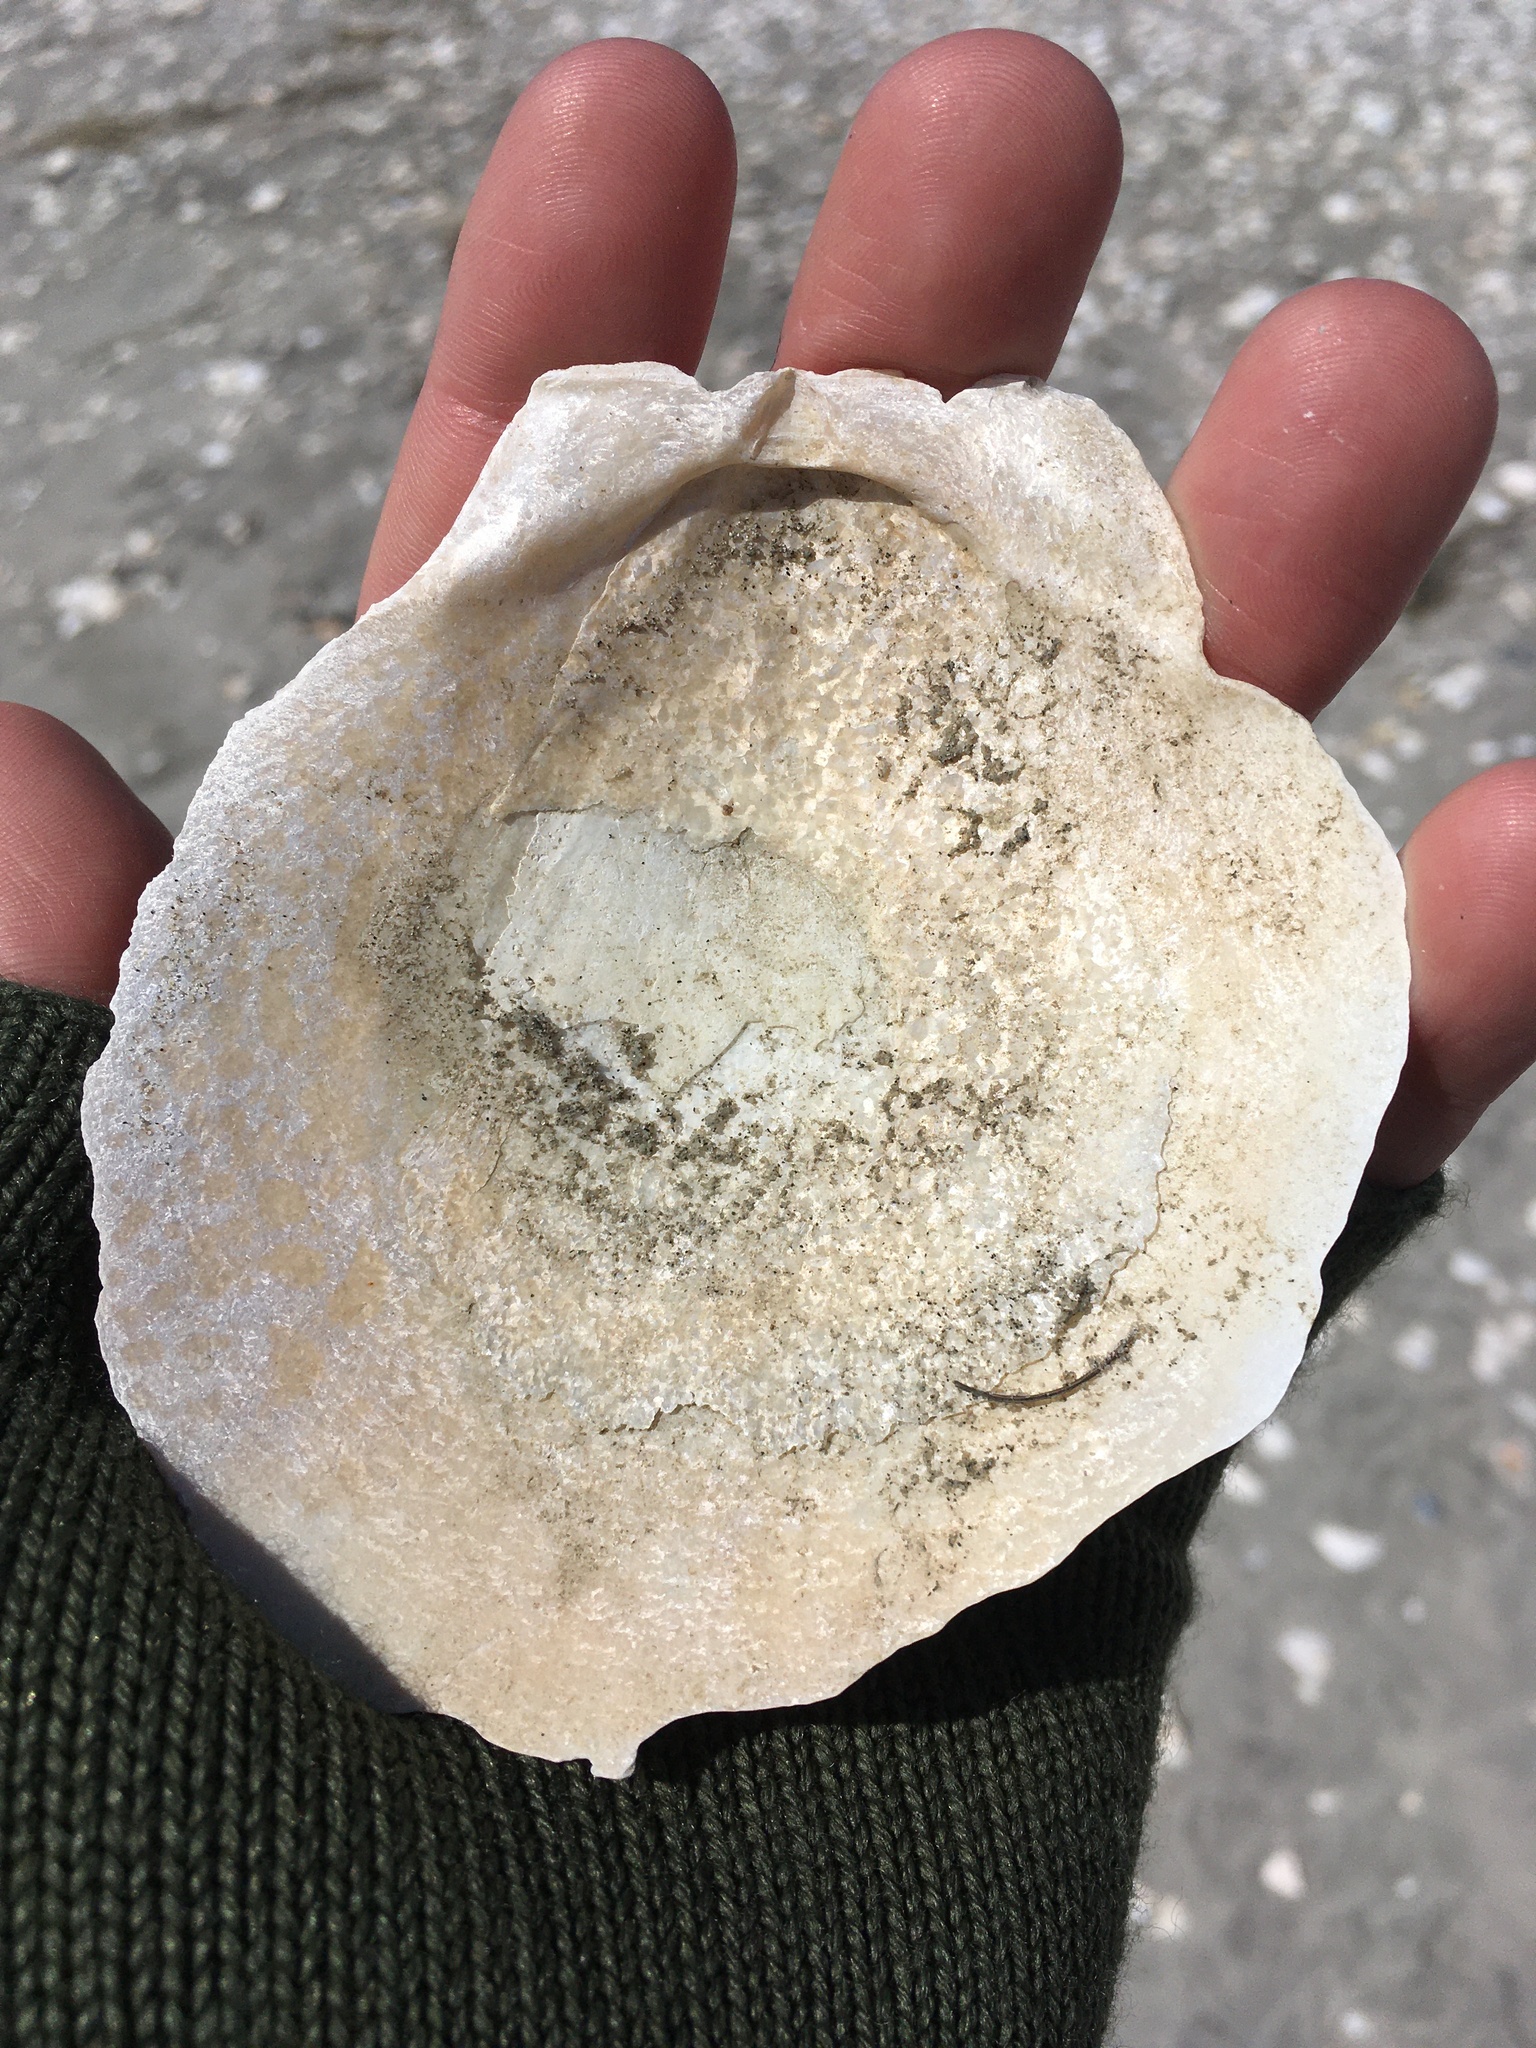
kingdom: Animalia
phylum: Mollusca
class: Bivalvia
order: Pectinida
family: Pectinidae
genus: Placopecten
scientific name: Placopecten magellanicus
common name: American sea scallop
